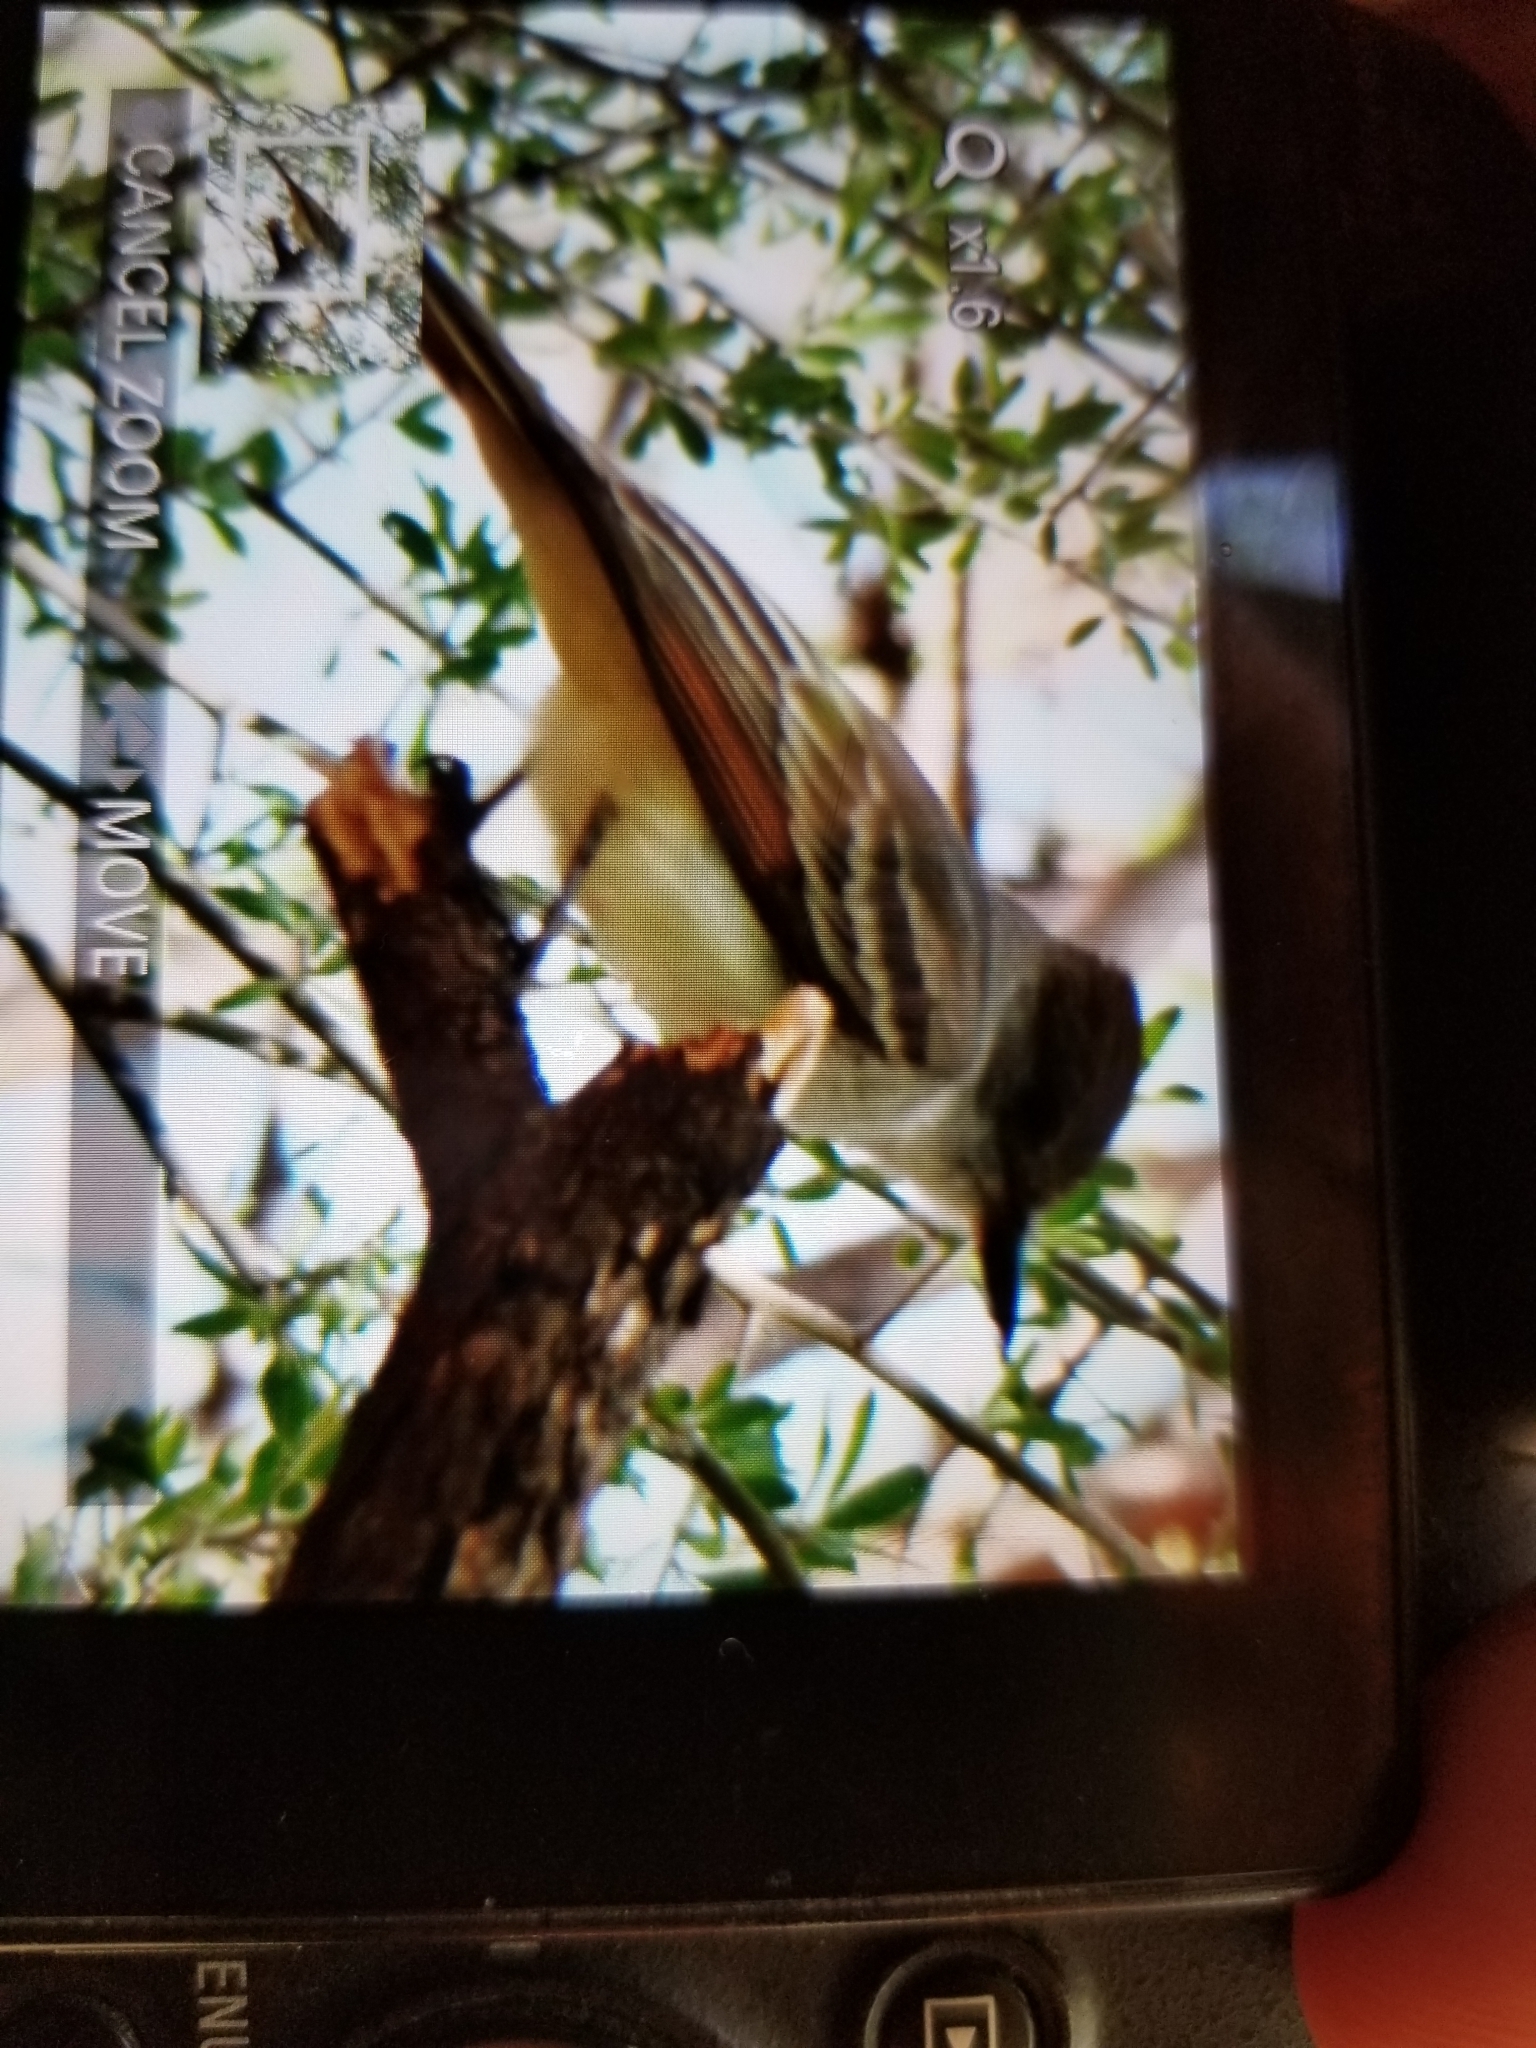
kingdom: Animalia
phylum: Chordata
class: Aves
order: Passeriformes
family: Tyrannidae
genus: Myiarchus
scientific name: Myiarchus cinerascens
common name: Ash-throated flycatcher
